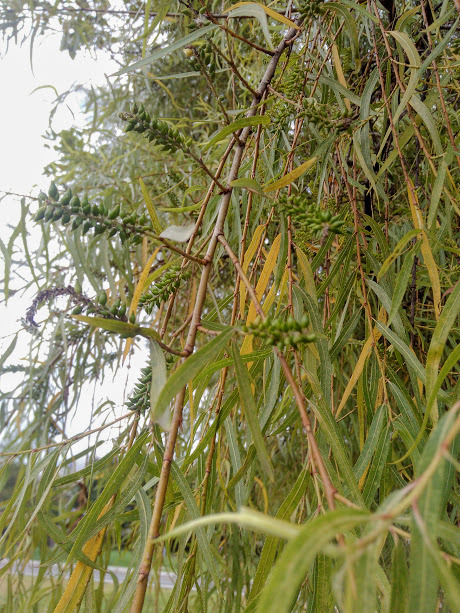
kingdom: Plantae
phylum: Tracheophyta
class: Magnoliopsida
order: Malpighiales
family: Salicaceae
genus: Salix
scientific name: Salix humboldtiana
